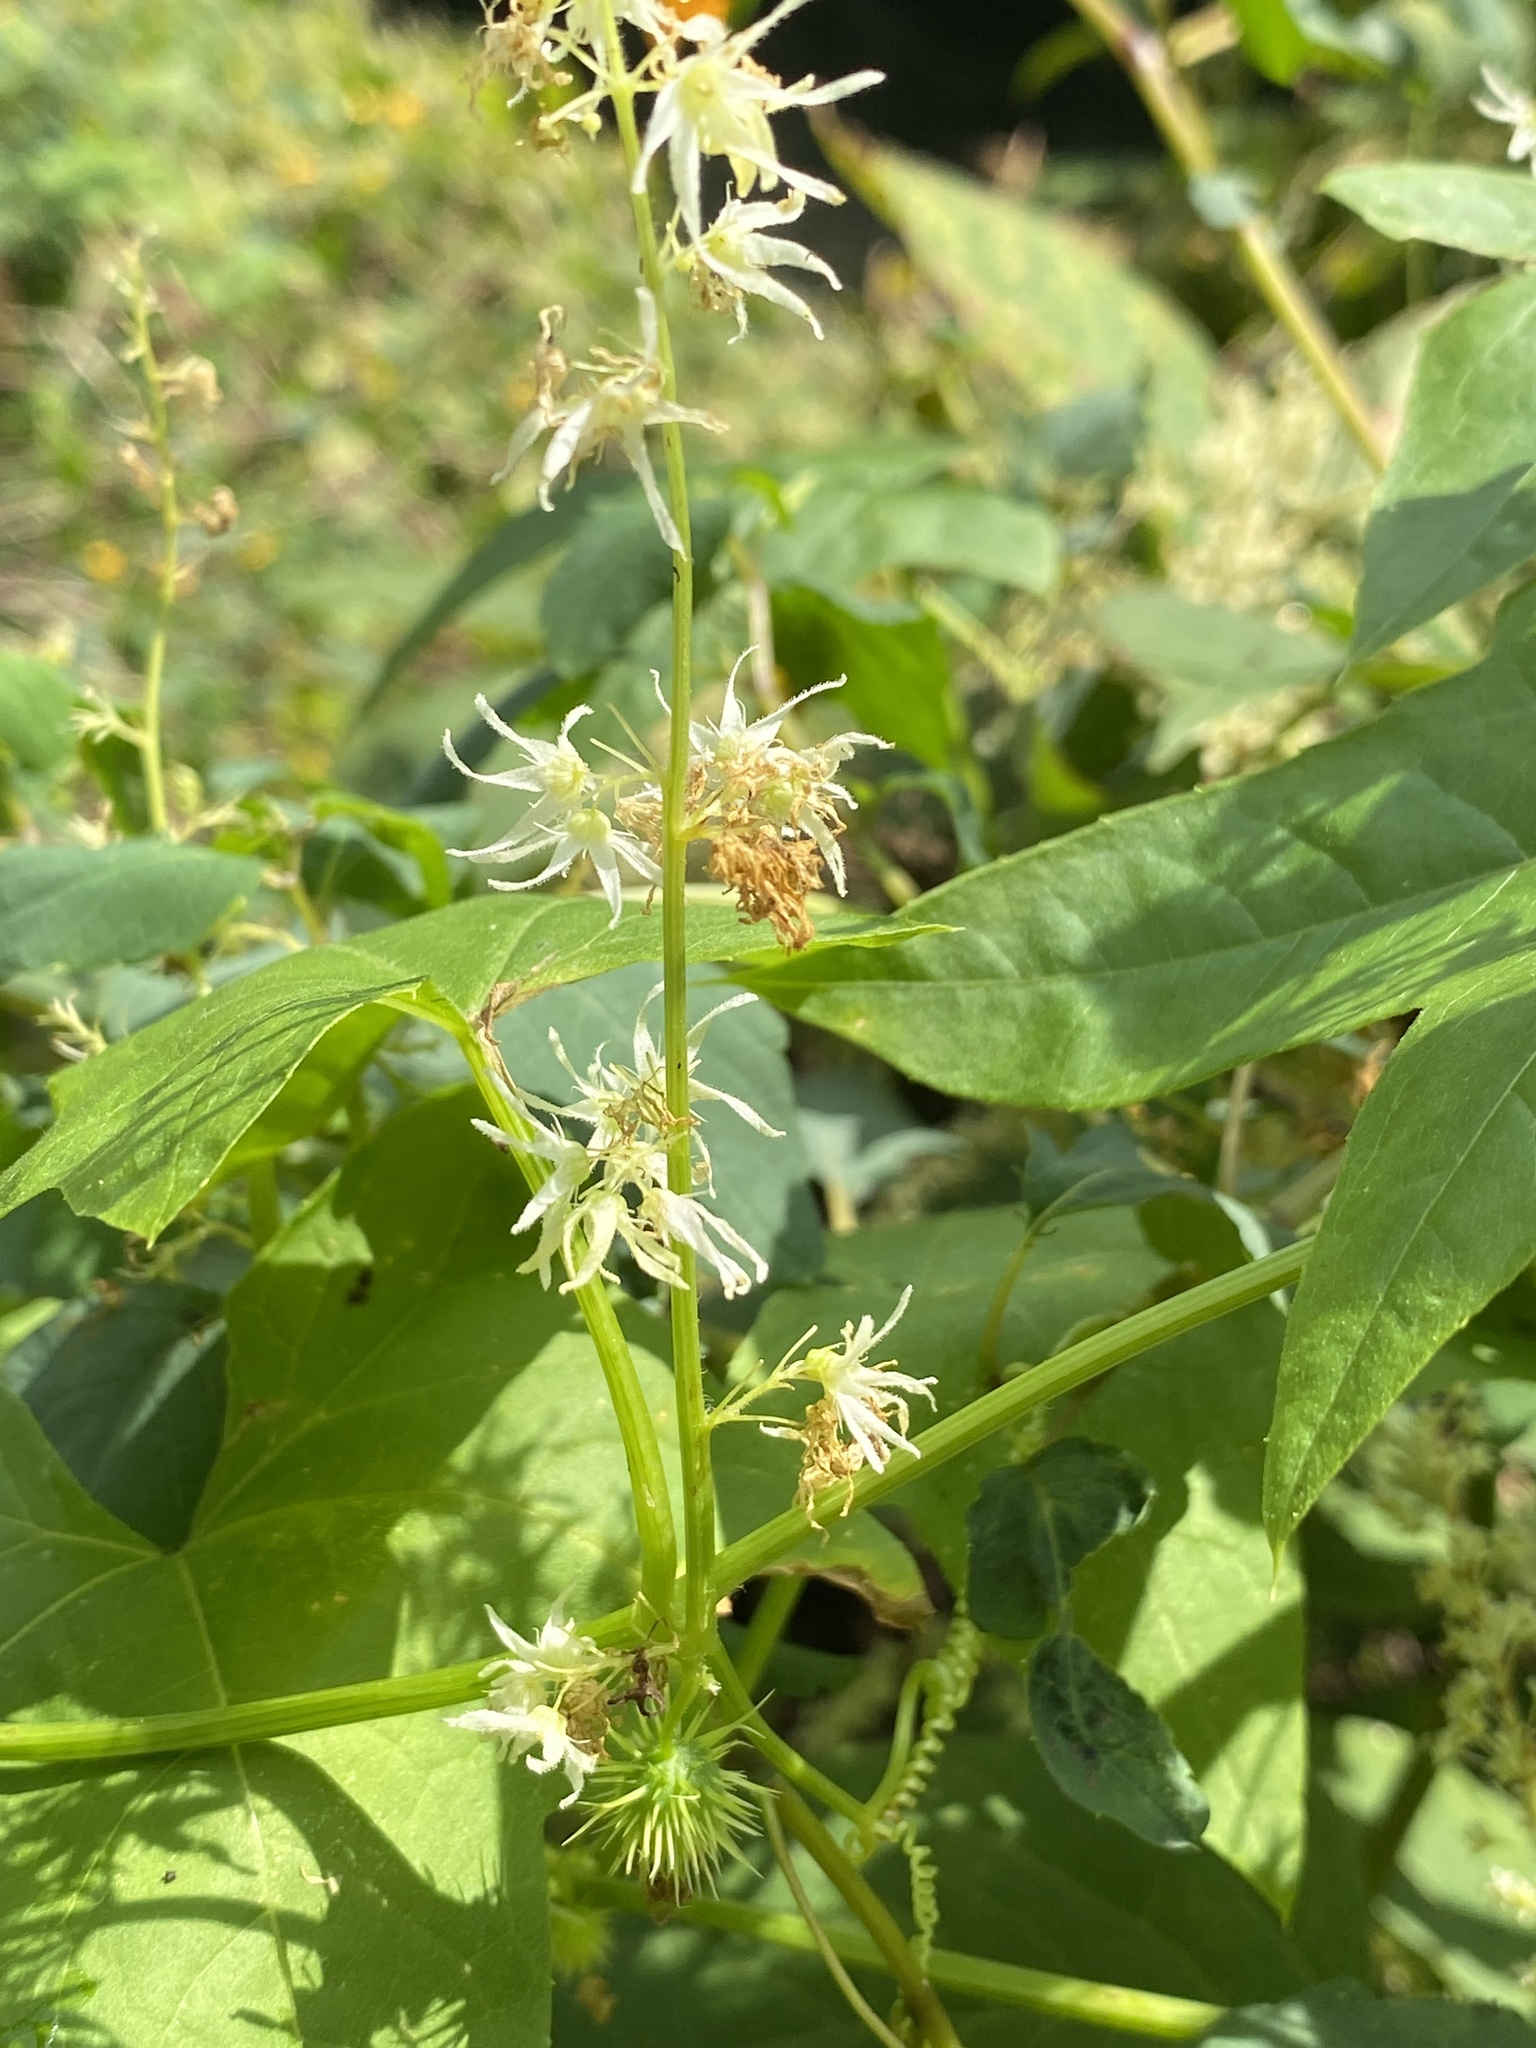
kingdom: Plantae
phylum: Tracheophyta
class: Magnoliopsida
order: Cucurbitales
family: Cucurbitaceae
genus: Echinocystis
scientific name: Echinocystis lobata
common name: Wild cucumber
